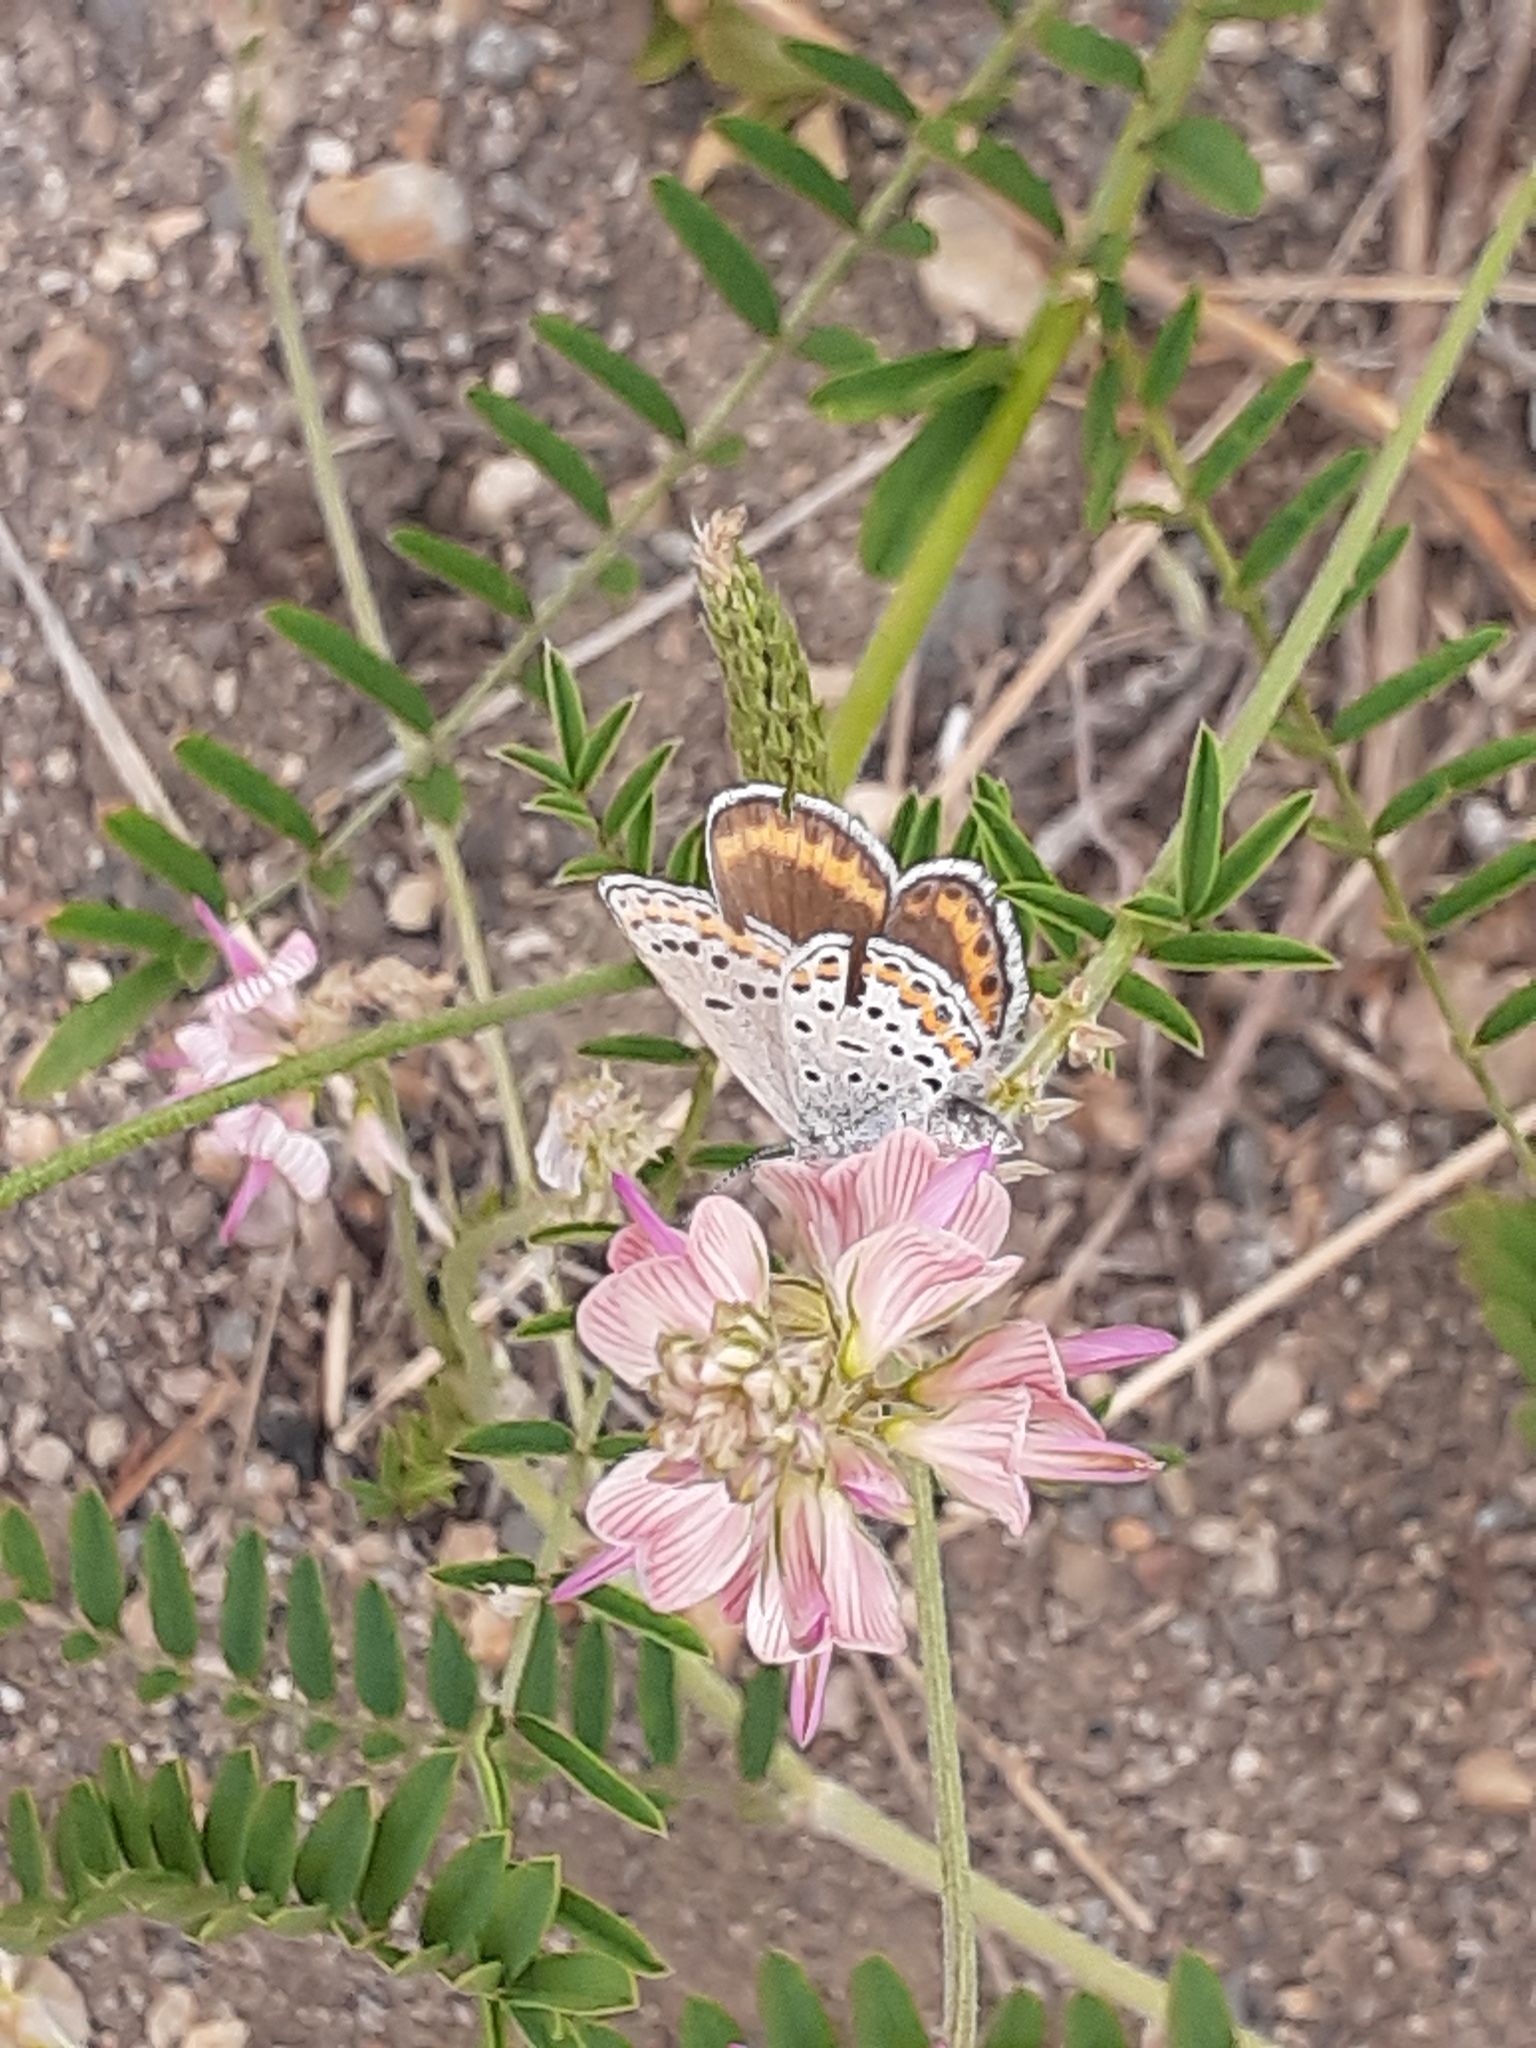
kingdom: Animalia
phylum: Arthropoda
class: Insecta
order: Lepidoptera
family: Lycaenidae
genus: Lycaeides
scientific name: Lycaeides melissa
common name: Melissa blue
